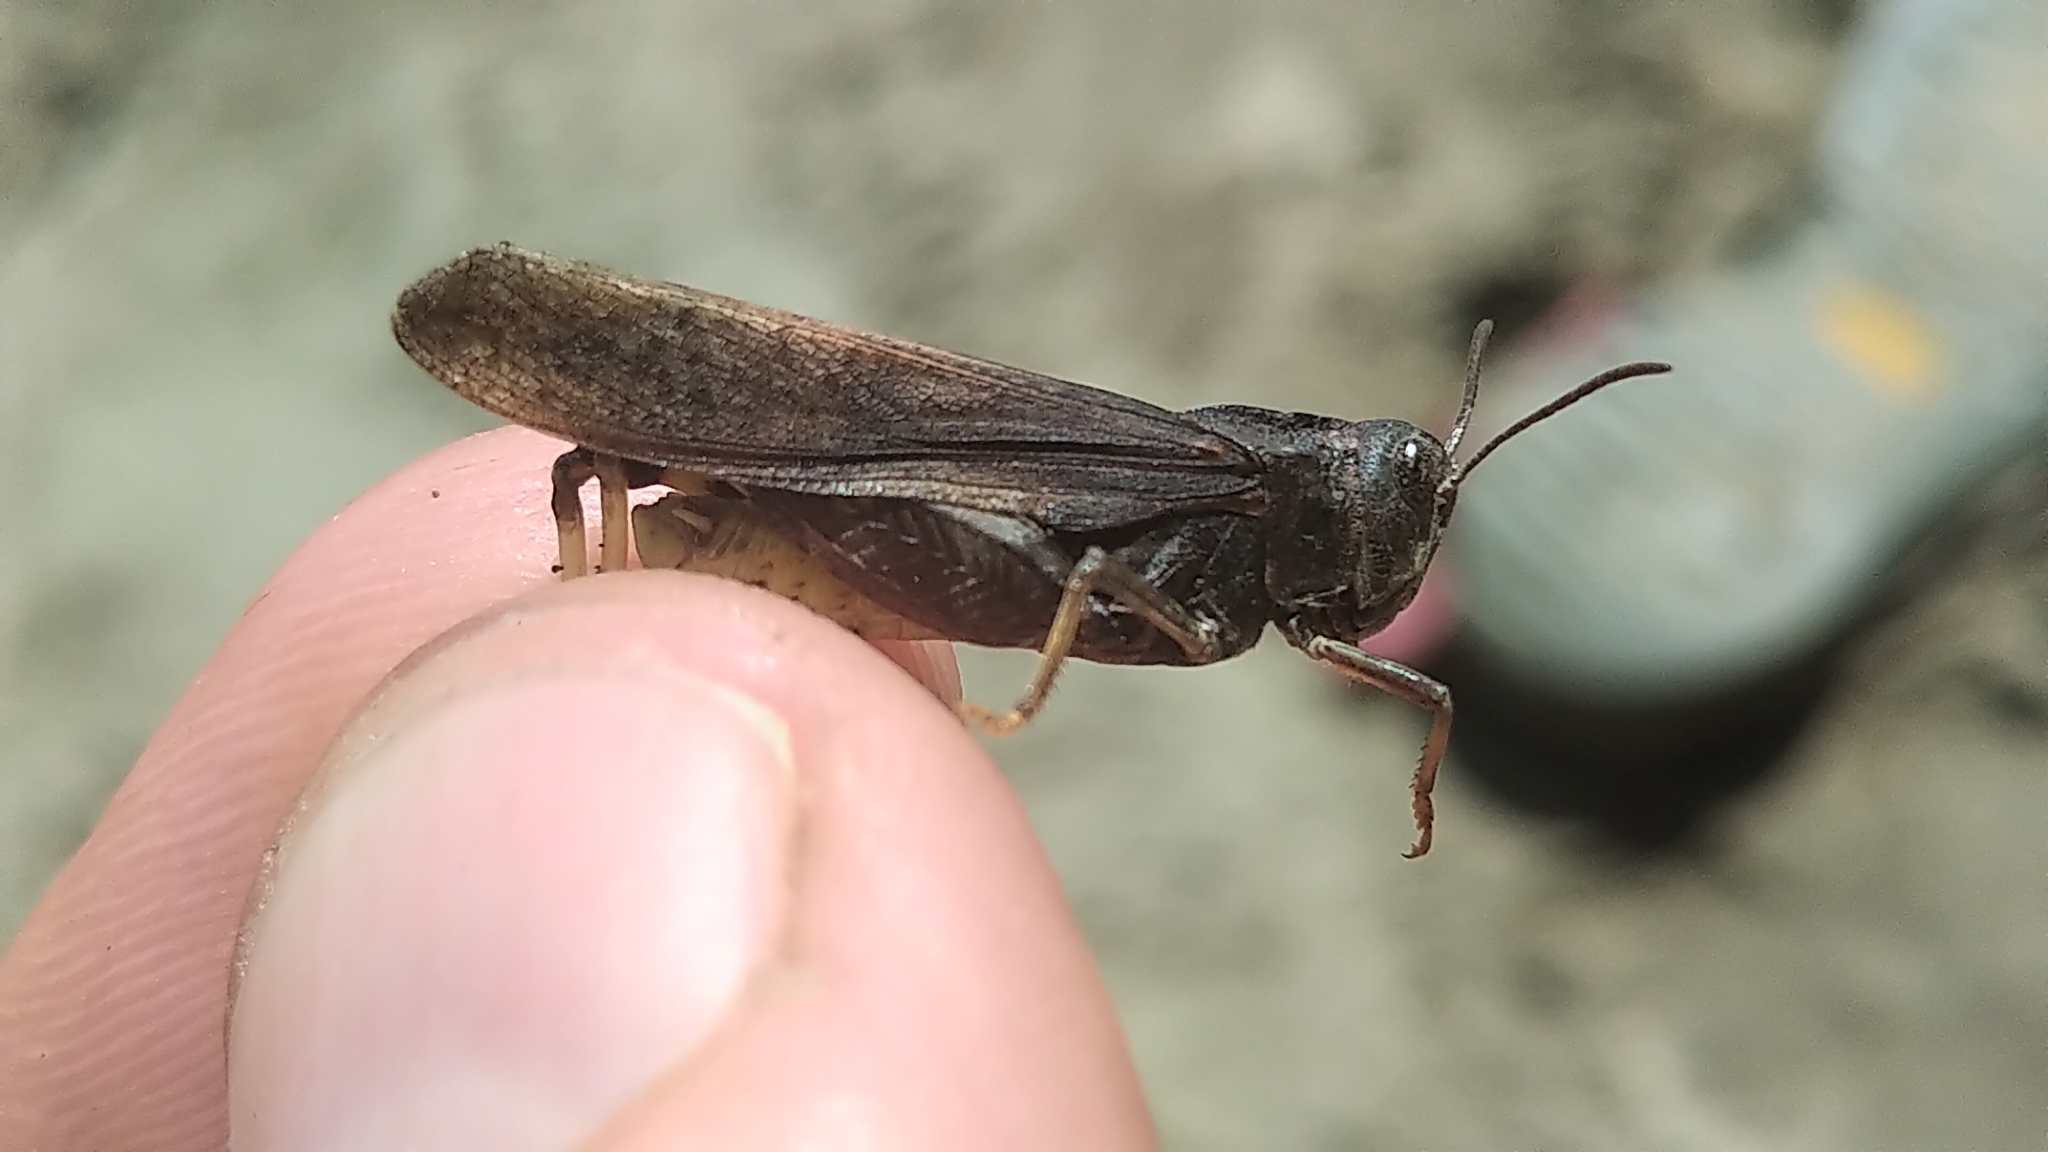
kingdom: Animalia
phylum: Arthropoda
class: Insecta
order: Orthoptera
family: Acrididae
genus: Arphia
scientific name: Arphia conspersa
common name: Speckle-winged rangeland grasshopper
